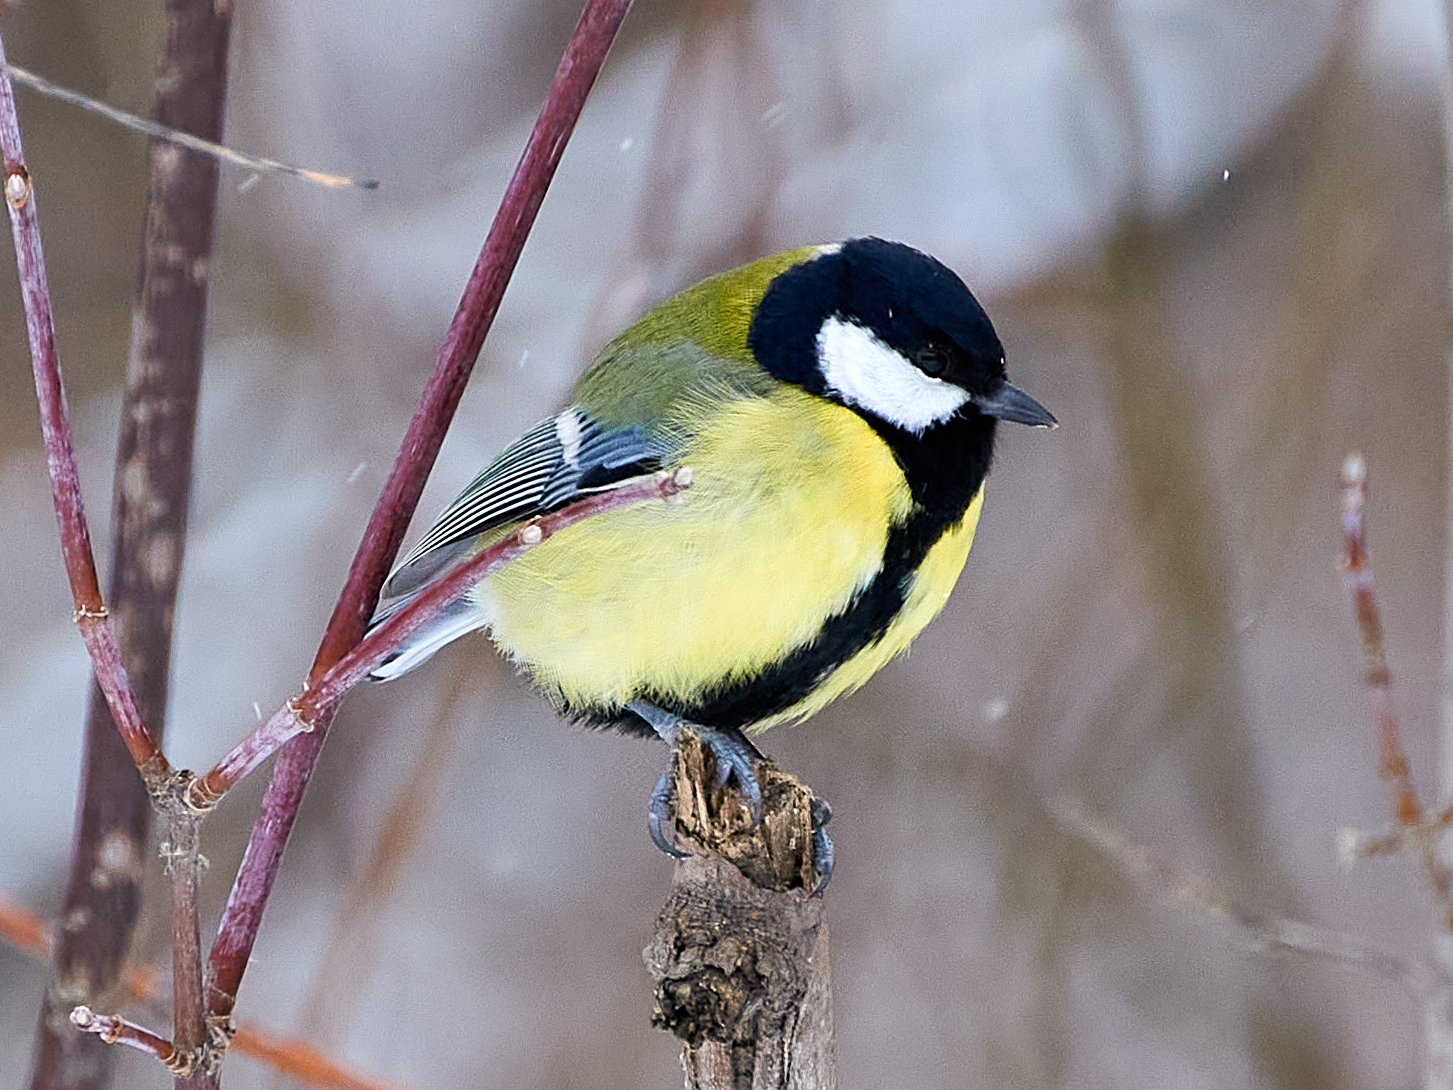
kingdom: Animalia
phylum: Chordata
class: Aves
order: Passeriformes
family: Paridae
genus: Parus
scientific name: Parus major
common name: Great tit
